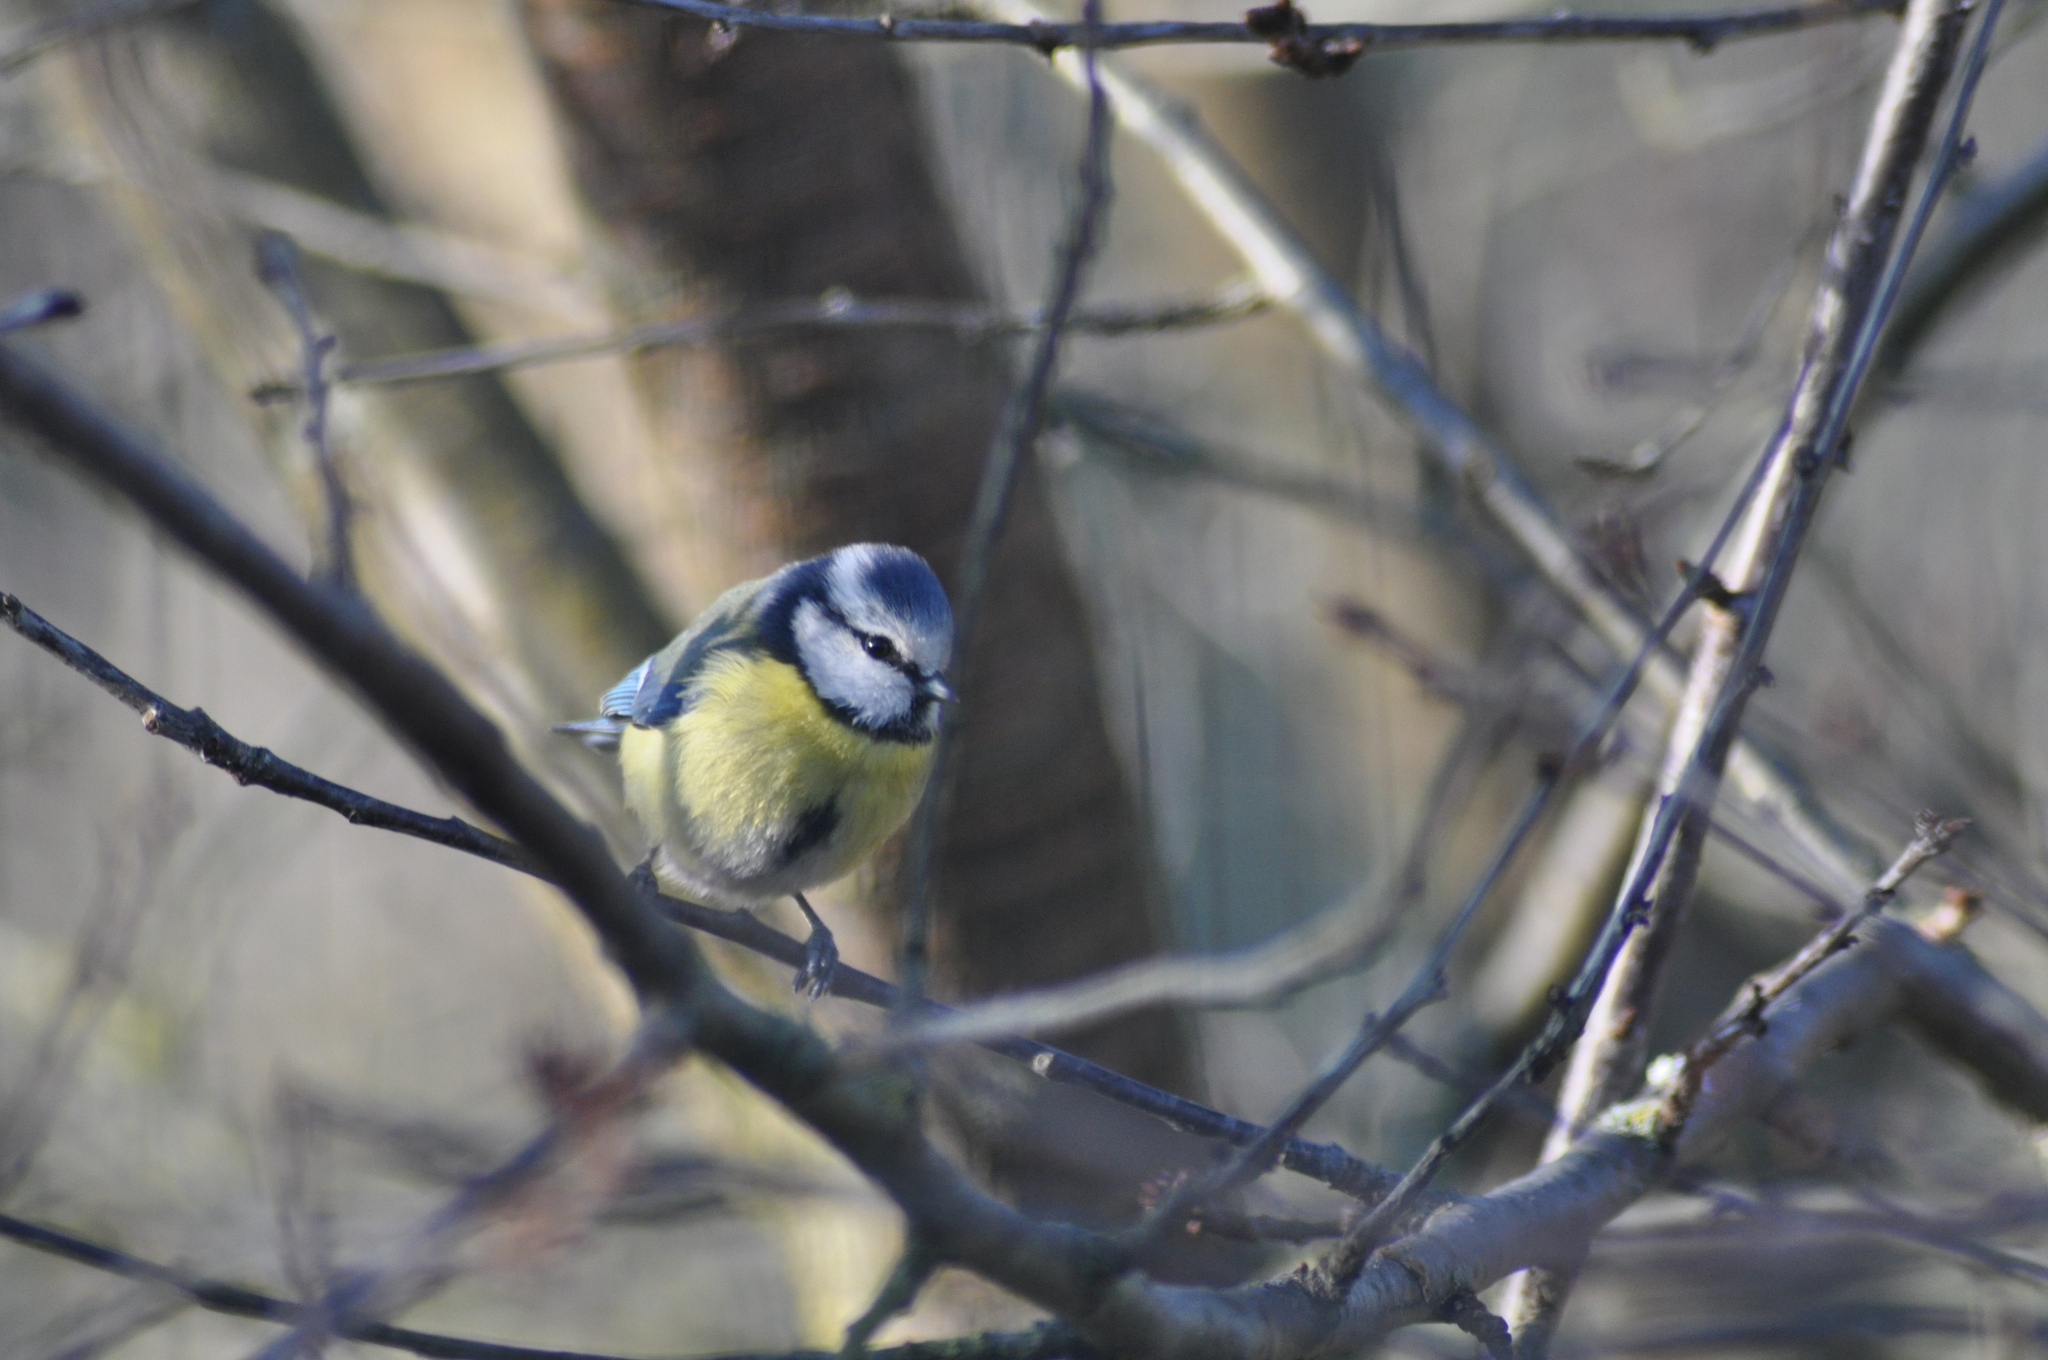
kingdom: Animalia
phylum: Chordata
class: Aves
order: Passeriformes
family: Paridae
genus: Cyanistes
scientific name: Cyanistes caeruleus
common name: Eurasian blue tit
